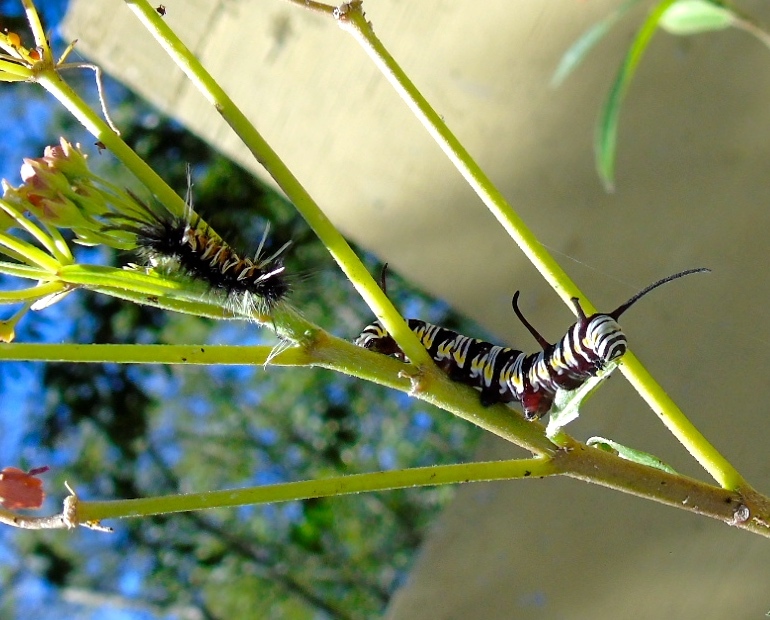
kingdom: Animalia
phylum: Arthropoda
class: Insecta
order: Lepidoptera
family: Nymphalidae
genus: Danaus
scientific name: Danaus gilippus
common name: Queen
